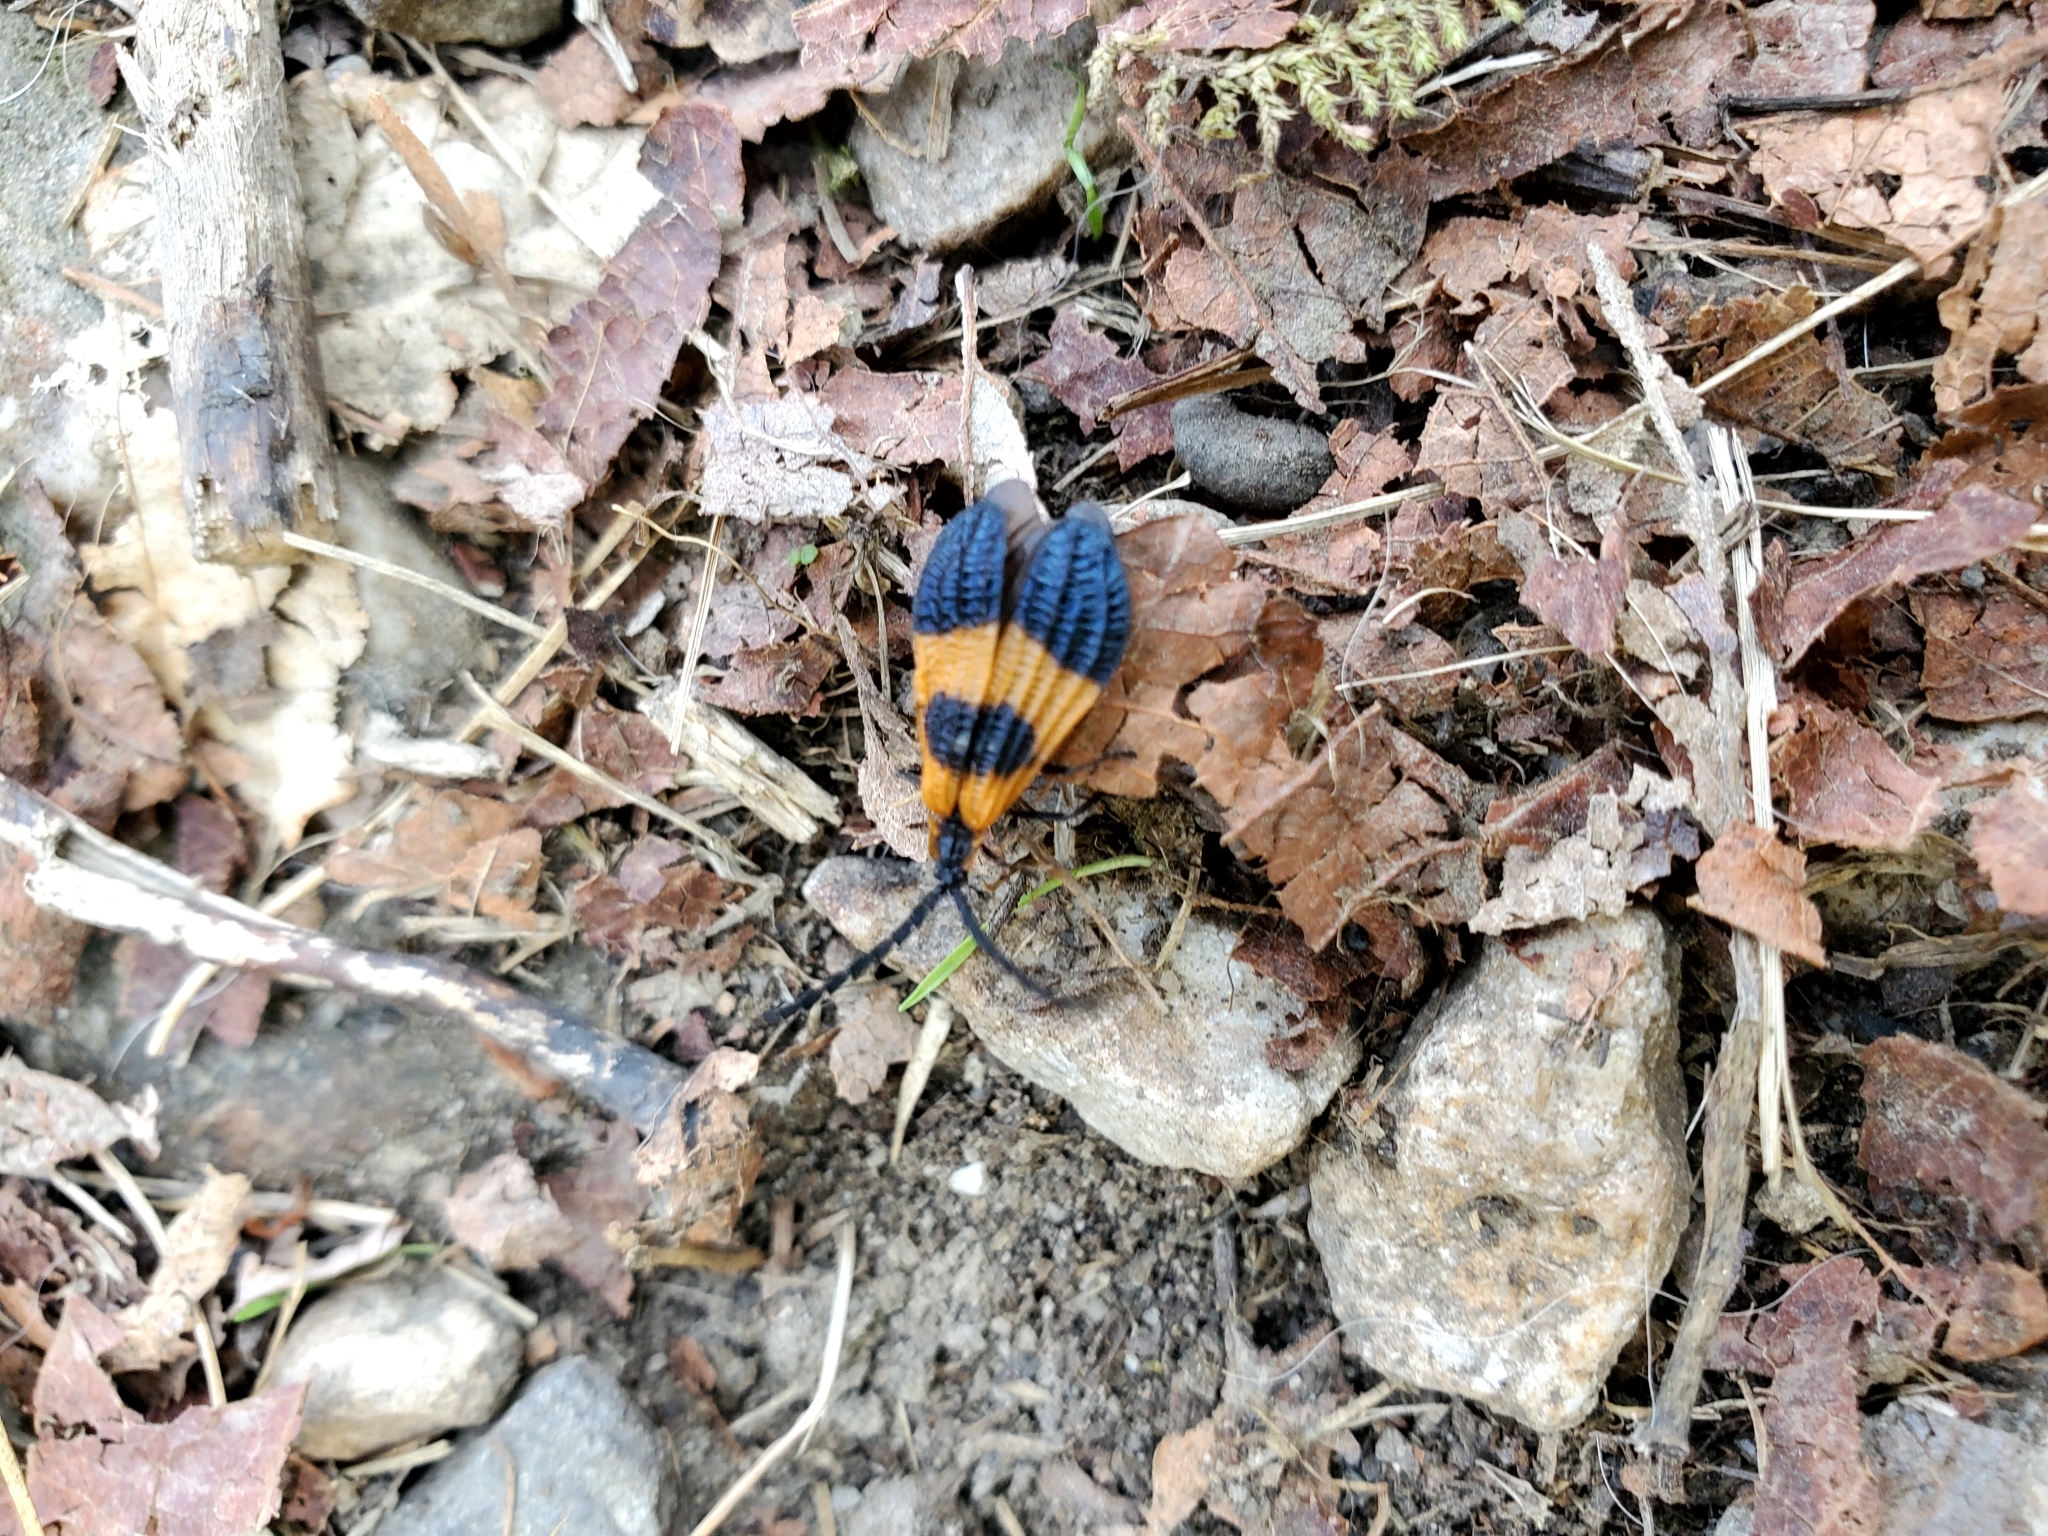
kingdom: Animalia
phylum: Arthropoda
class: Insecta
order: Coleoptera
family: Lycidae
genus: Calopteron
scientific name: Calopteron terminale
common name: End band net-winged beetle
